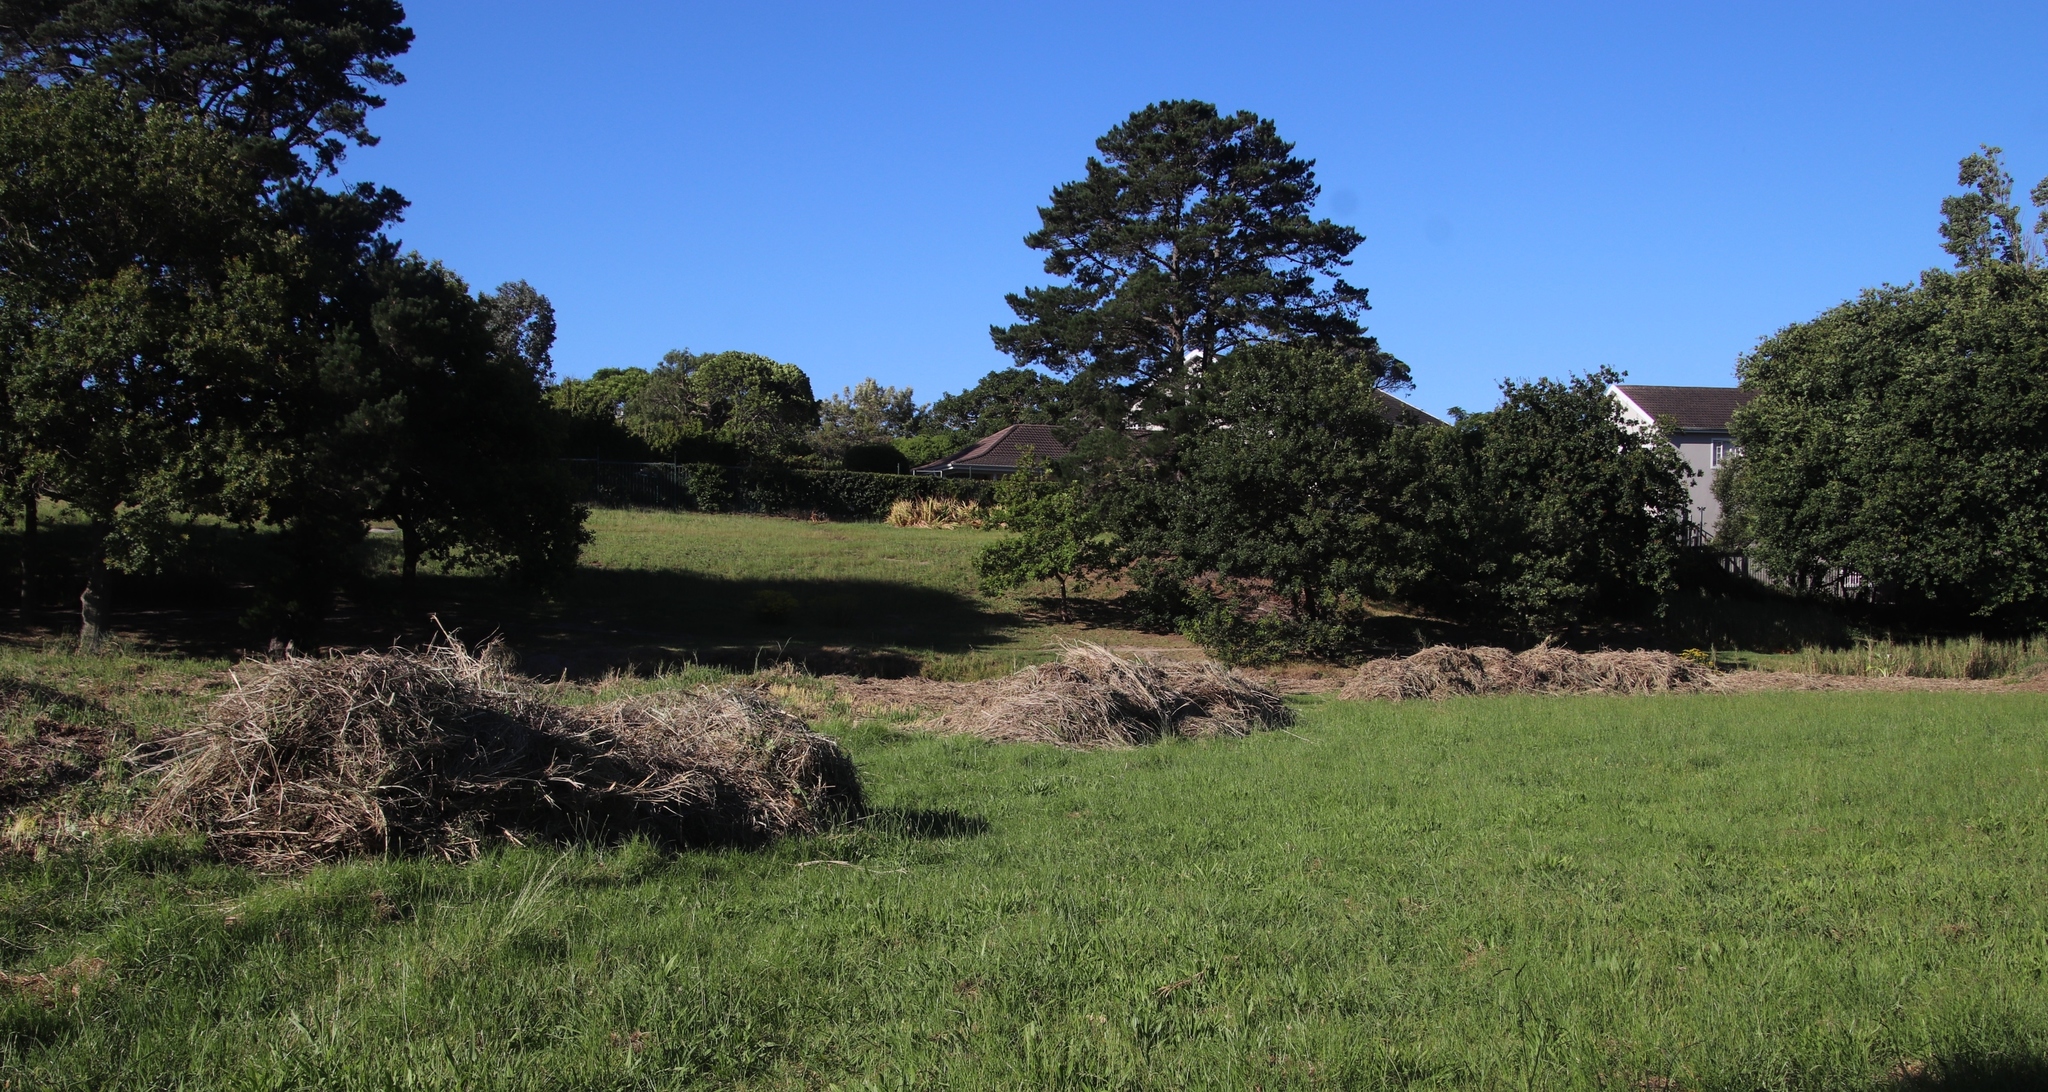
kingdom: Plantae
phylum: Tracheophyta
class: Liliopsida
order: Poales
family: Poaceae
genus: Echinochloa
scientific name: Echinochloa pyramidalis
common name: Antelope grass
